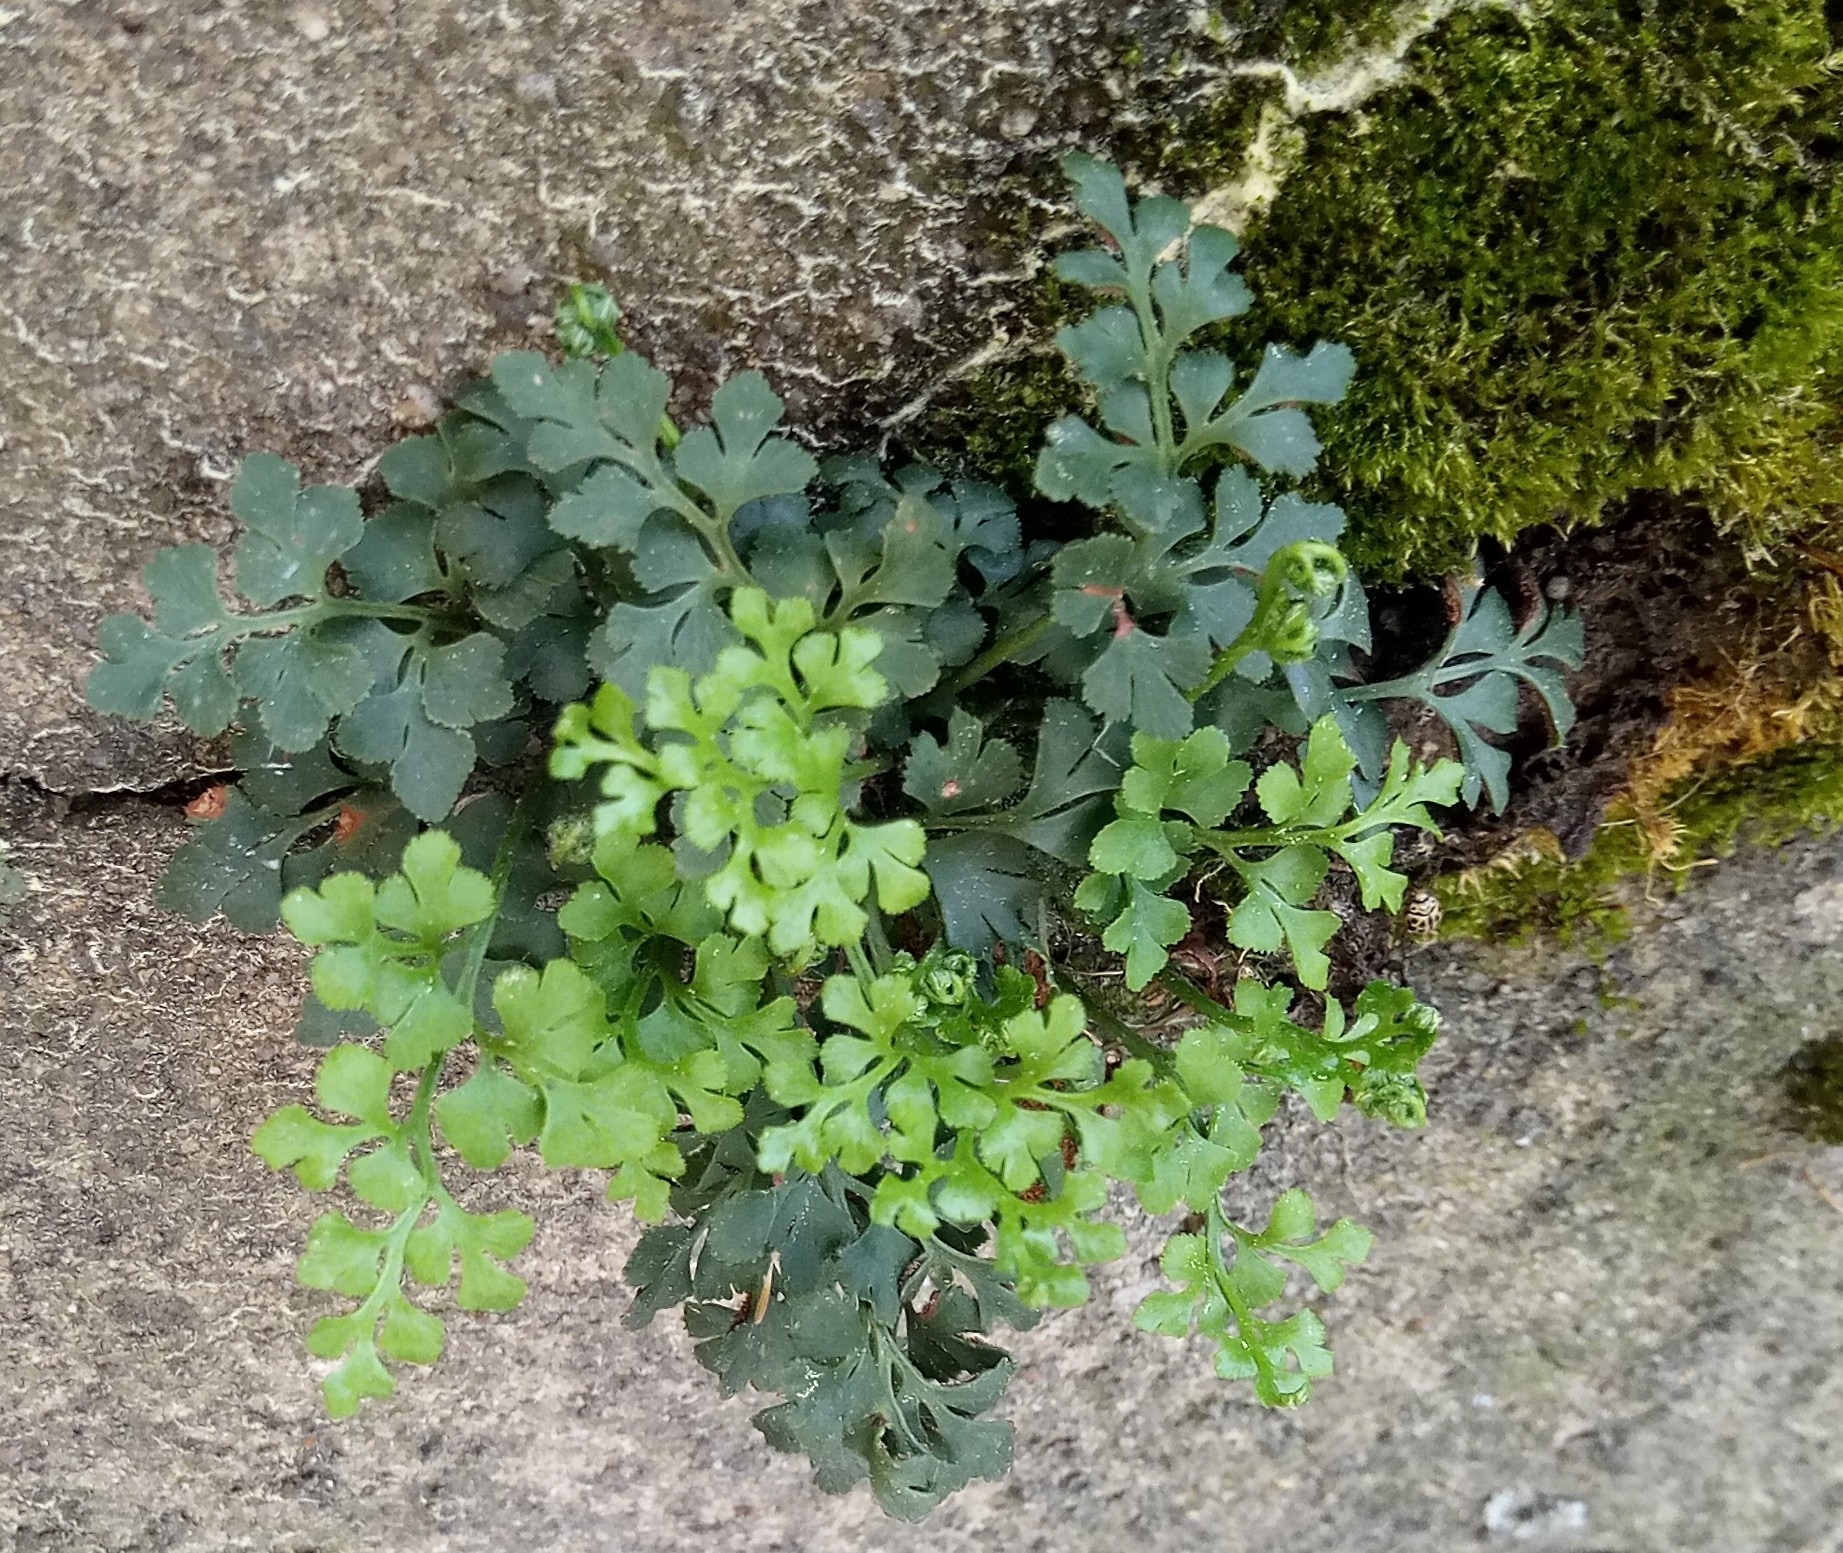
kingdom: Plantae
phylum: Tracheophyta
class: Polypodiopsida
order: Polypodiales
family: Aspleniaceae
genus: Asplenium
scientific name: Asplenium ruta-muraria
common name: Wall-rue
